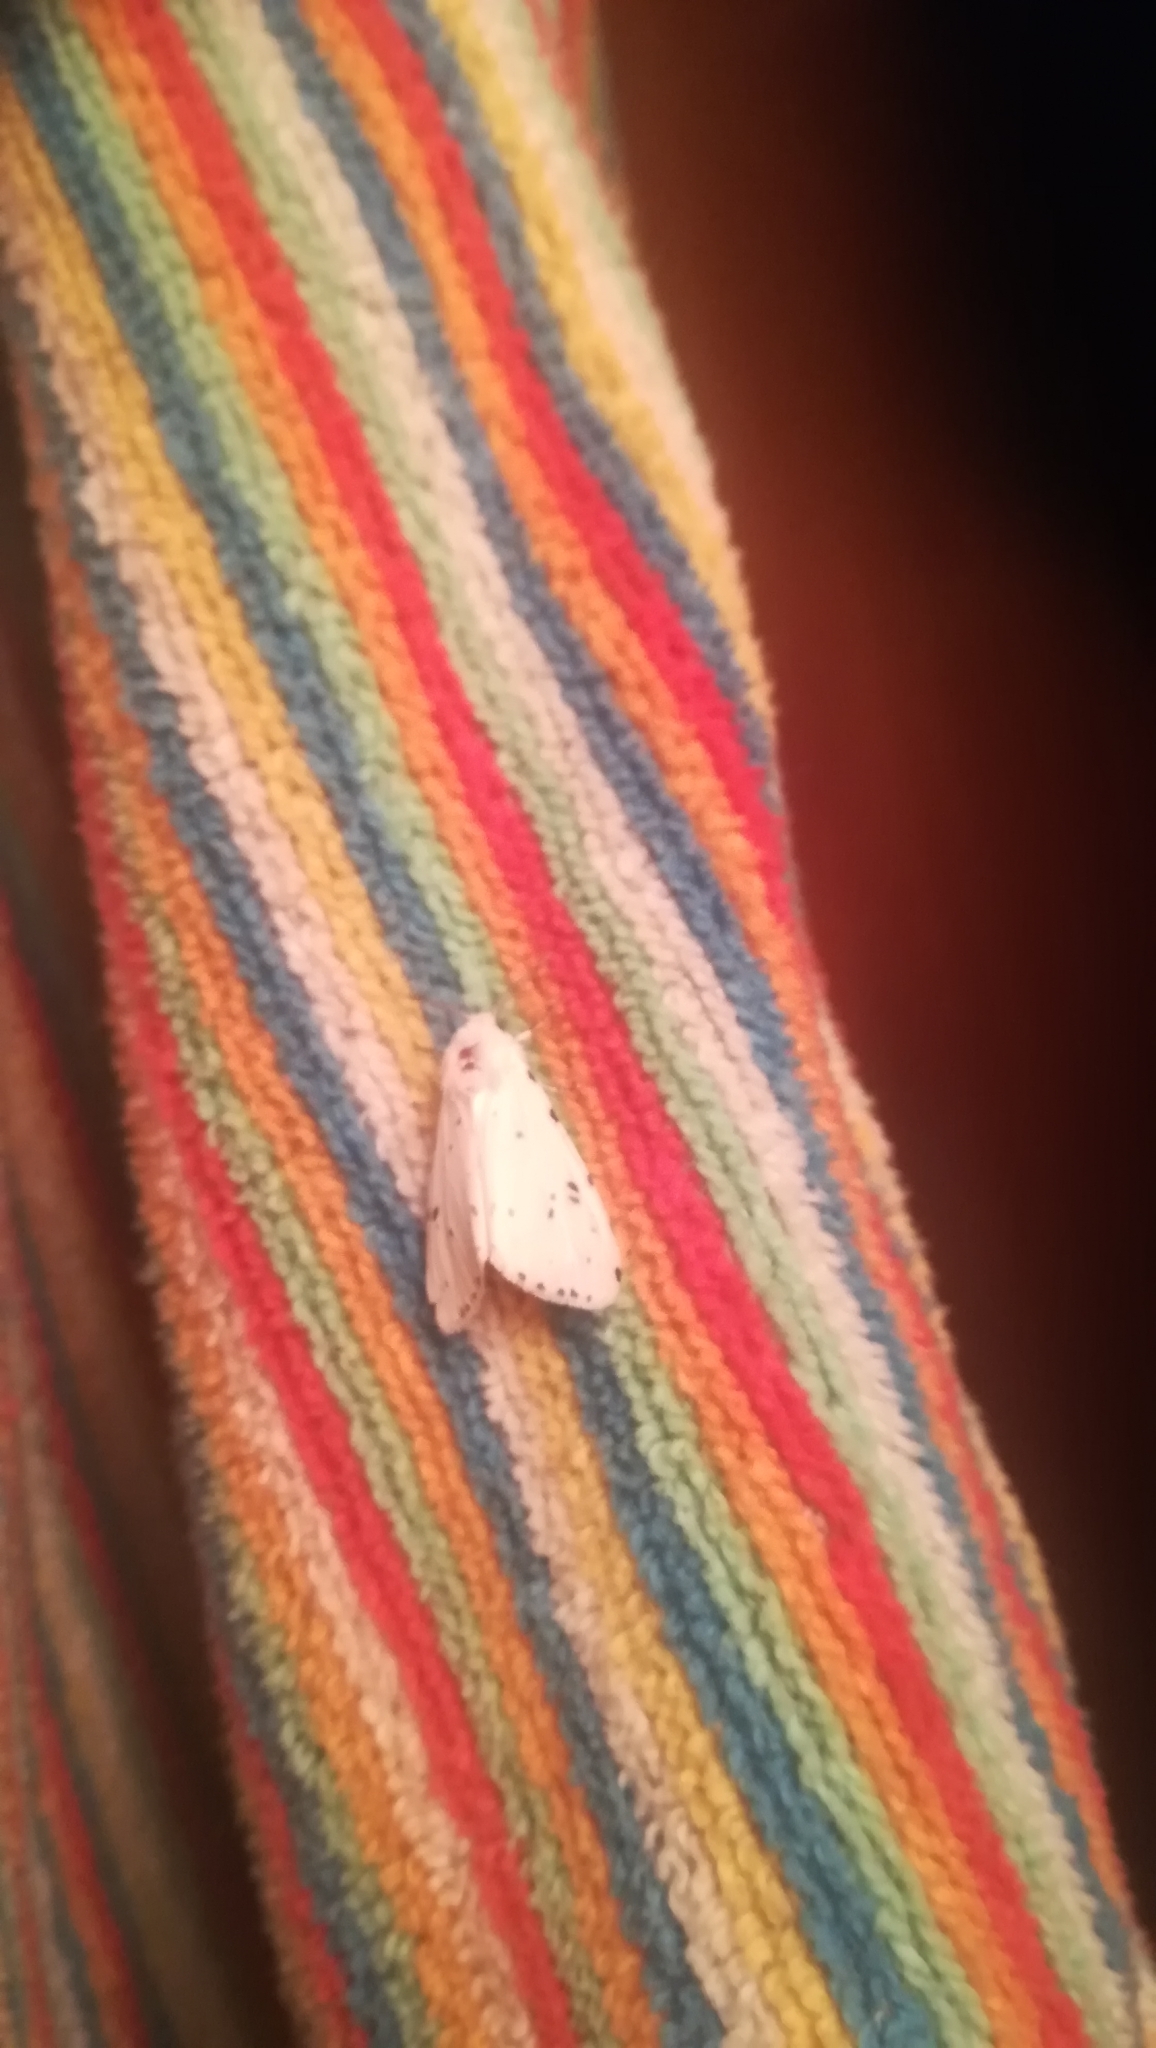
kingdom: Animalia
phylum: Arthropoda
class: Insecta
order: Lepidoptera
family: Erebidae
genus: Hyphantria
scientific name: Hyphantria cunea
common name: American white moth
